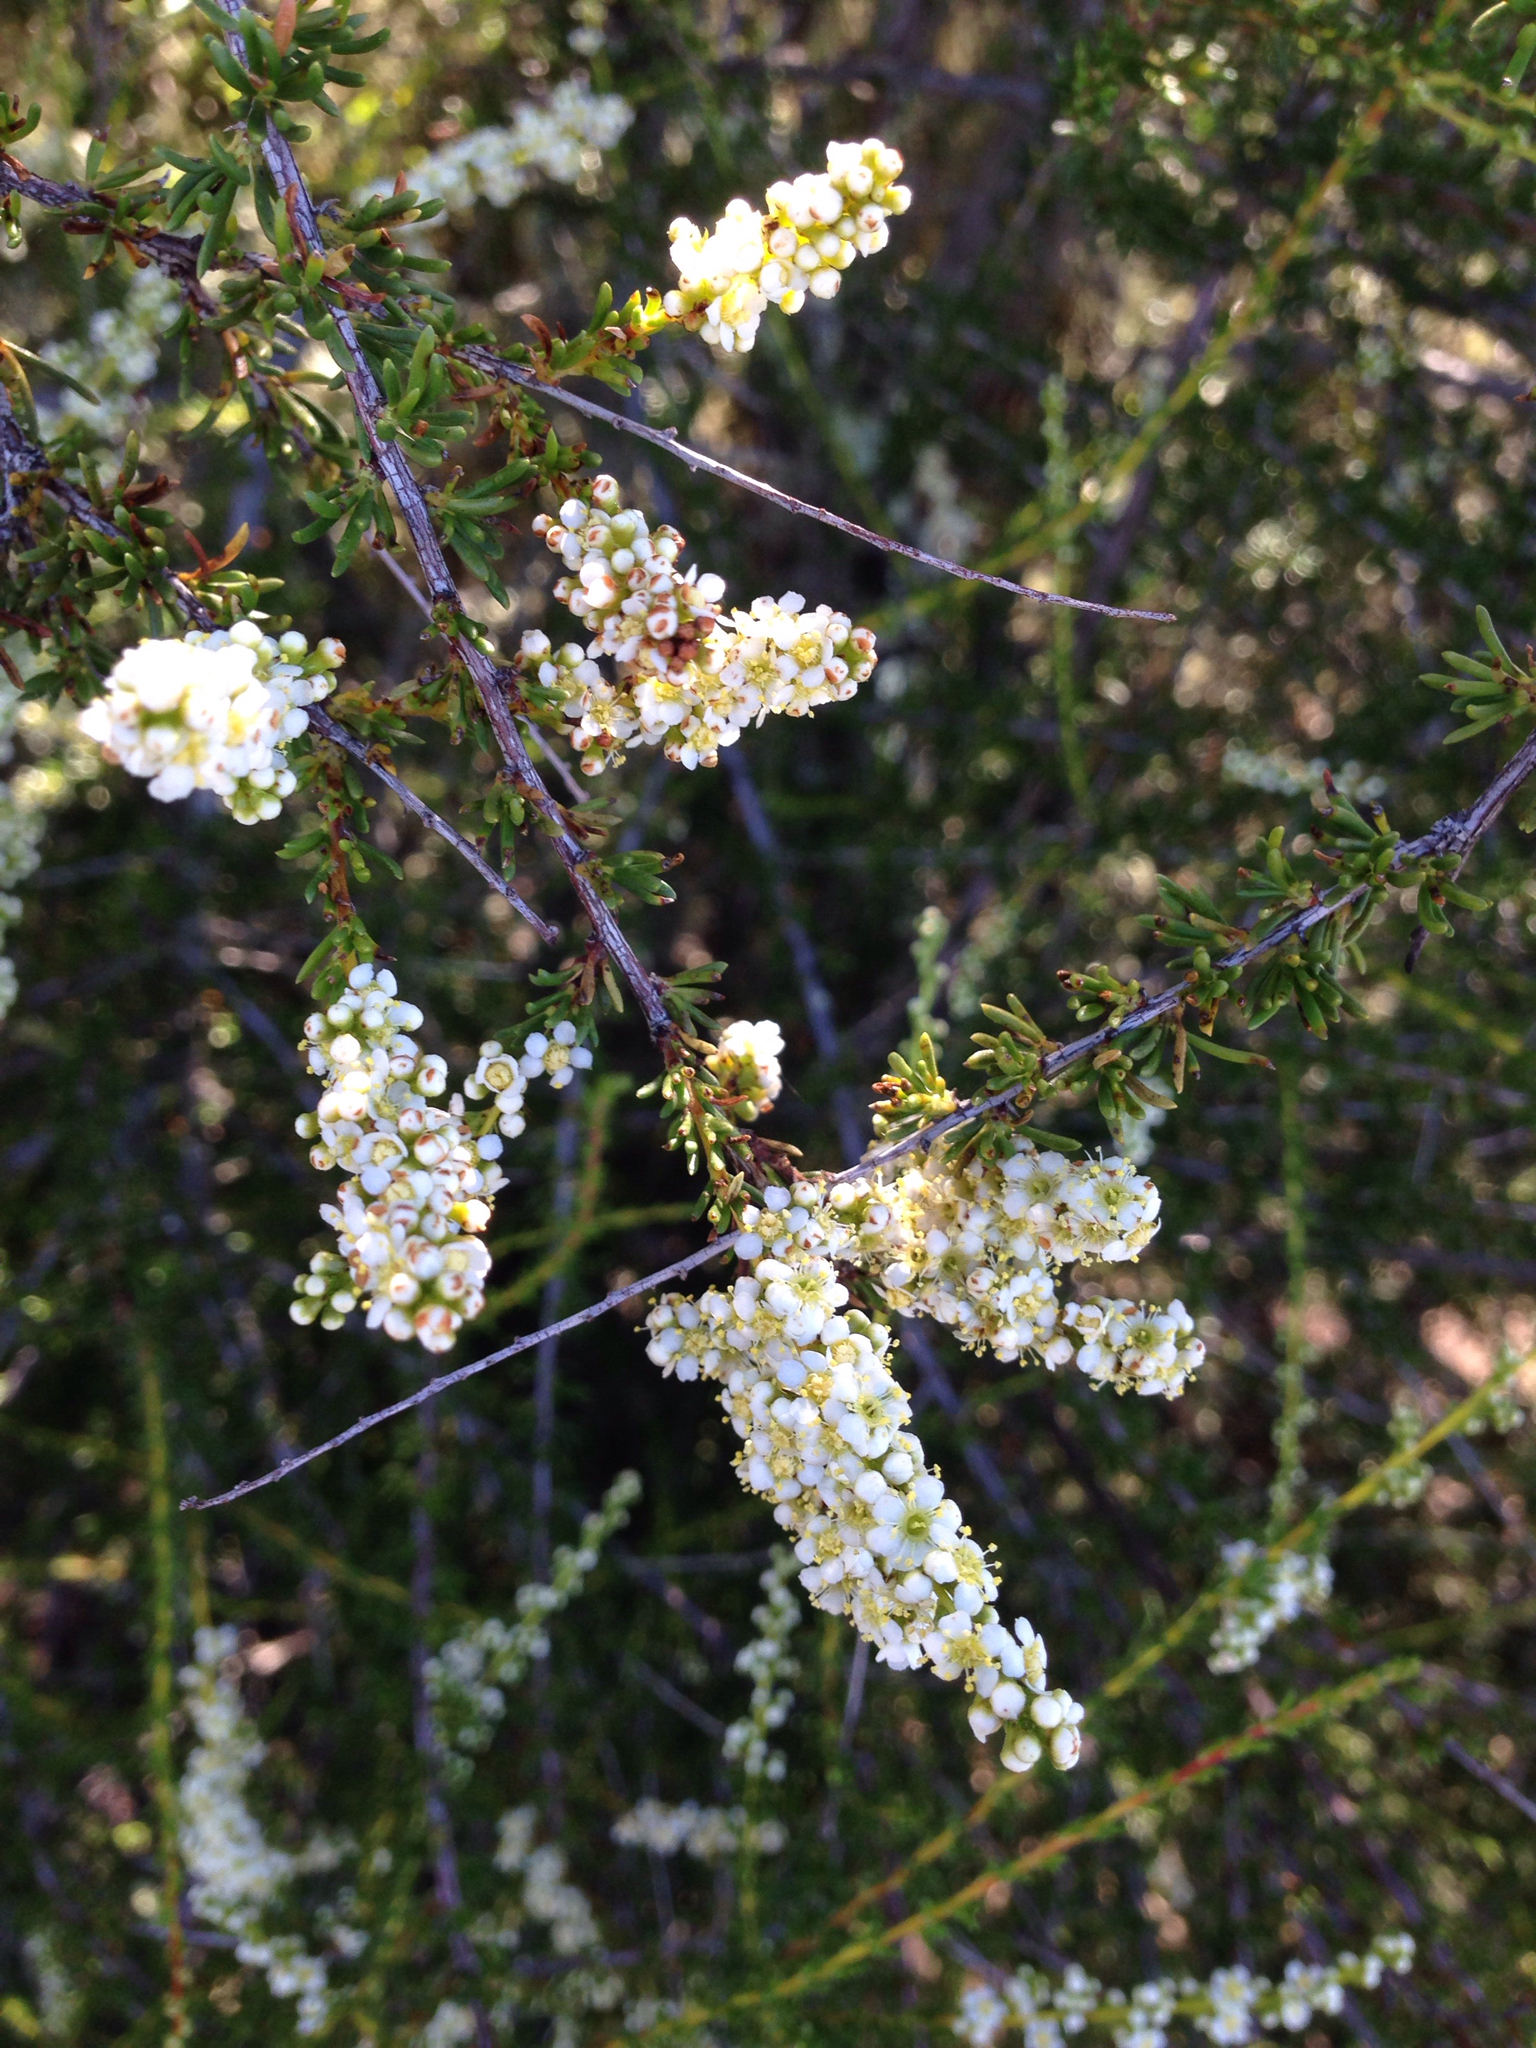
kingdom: Plantae
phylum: Tracheophyta
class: Magnoliopsida
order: Rosales
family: Rosaceae
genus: Adenostoma
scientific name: Adenostoma fasciculatum
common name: Chamise
